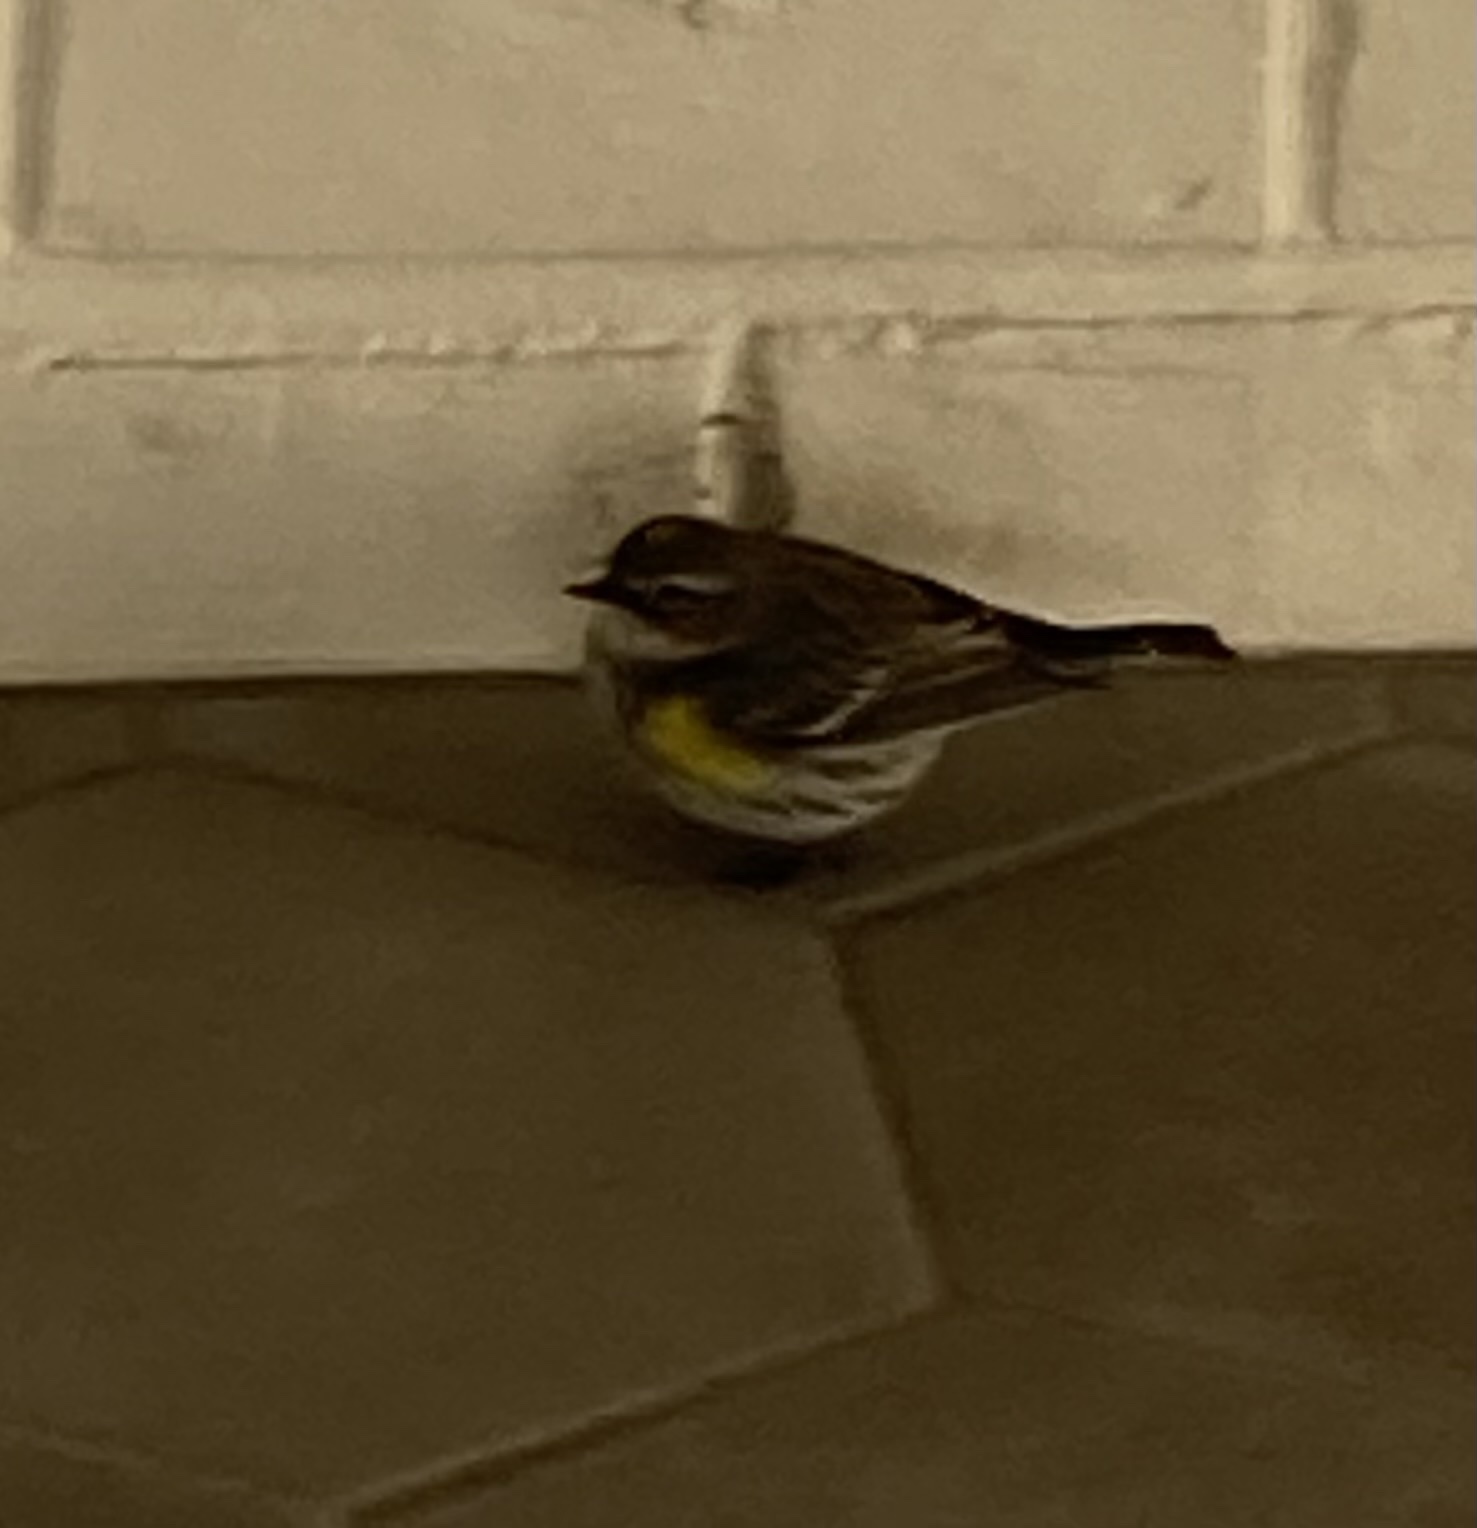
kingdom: Animalia
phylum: Chordata
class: Aves
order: Passeriformes
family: Parulidae
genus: Setophaga
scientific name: Setophaga coronata
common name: Myrtle warbler
